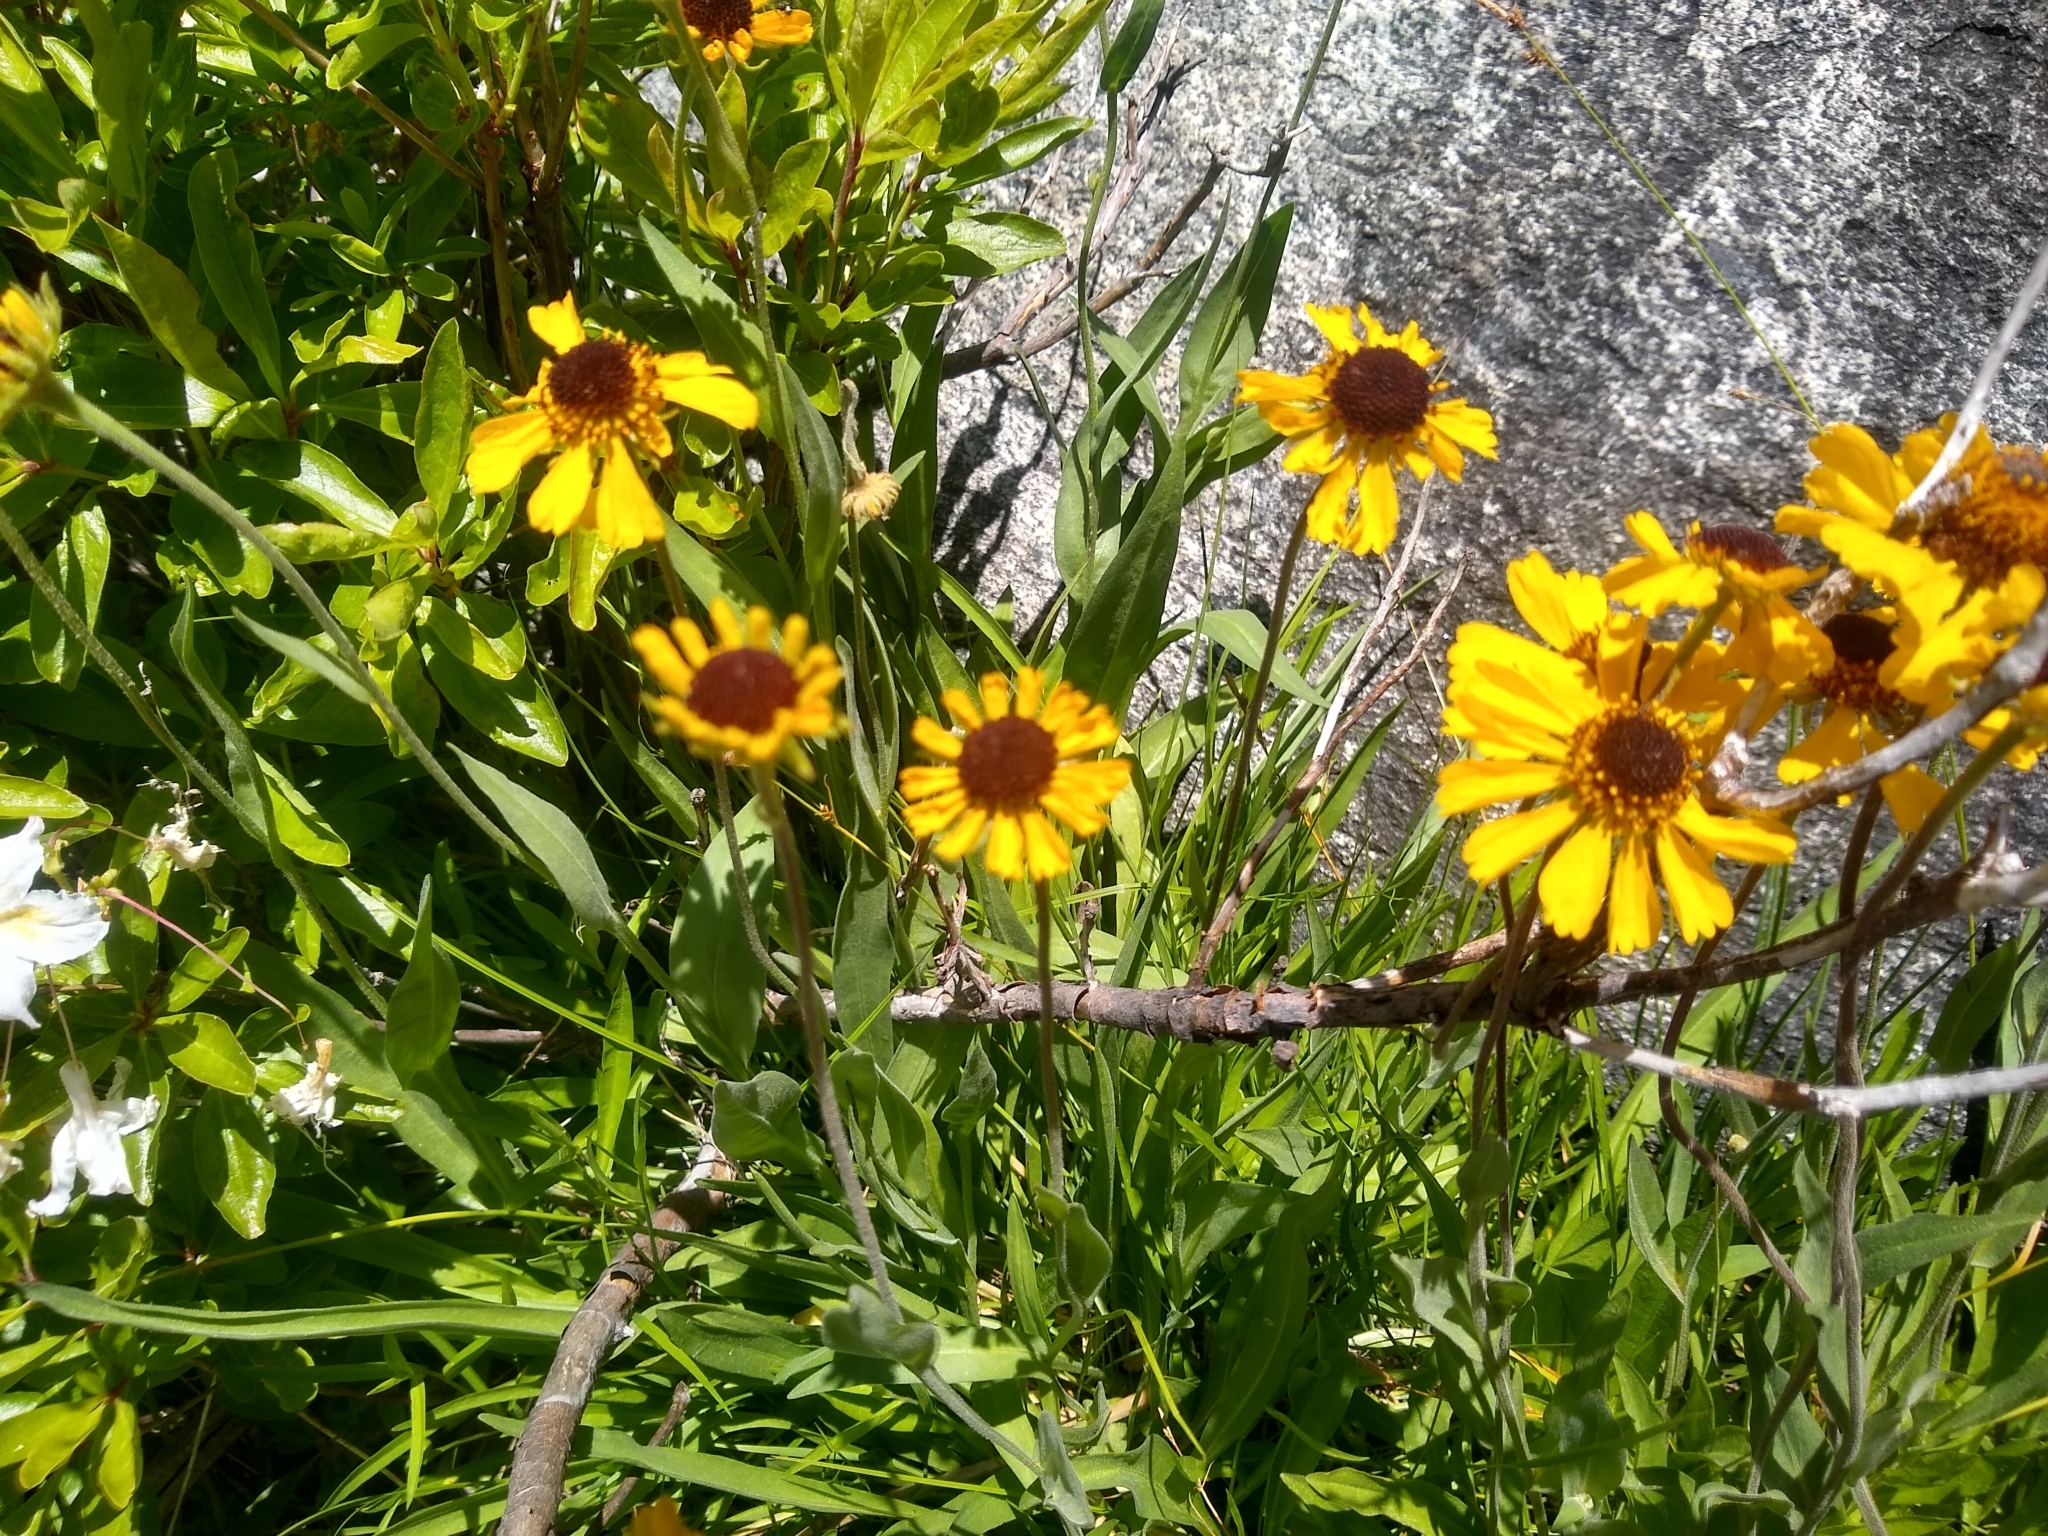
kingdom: Plantae
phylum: Tracheophyta
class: Magnoliopsida
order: Asterales
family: Asteraceae
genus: Helenium
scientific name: Helenium bigelovii
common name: Bigelow's sneezeweed
